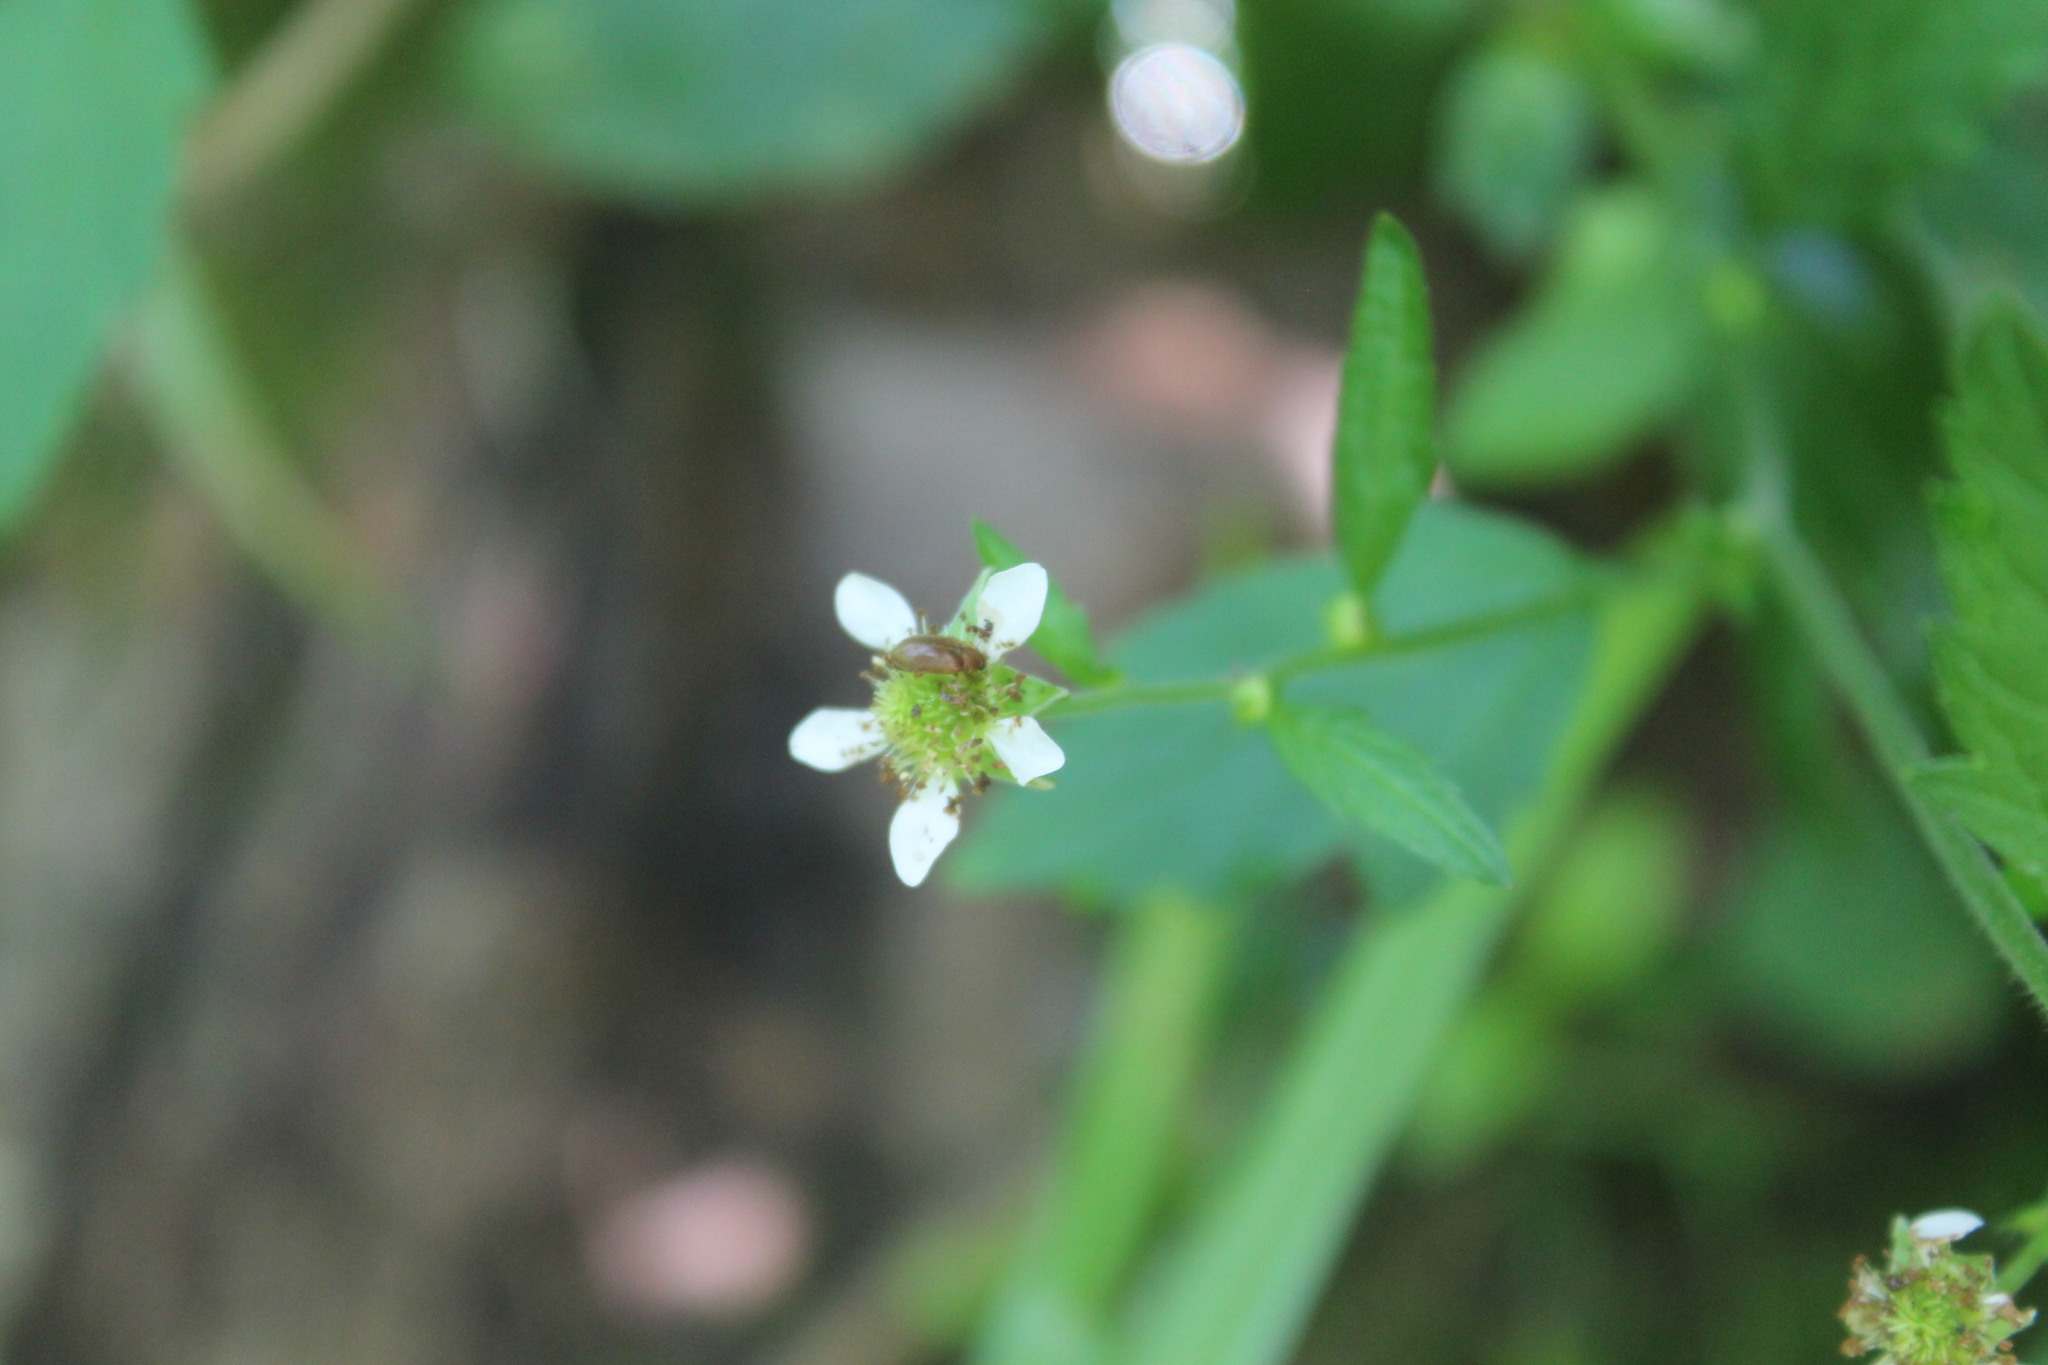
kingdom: Plantae
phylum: Tracheophyta
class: Magnoliopsida
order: Rosales
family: Rosaceae
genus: Geum
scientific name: Geum canadense
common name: White avens
